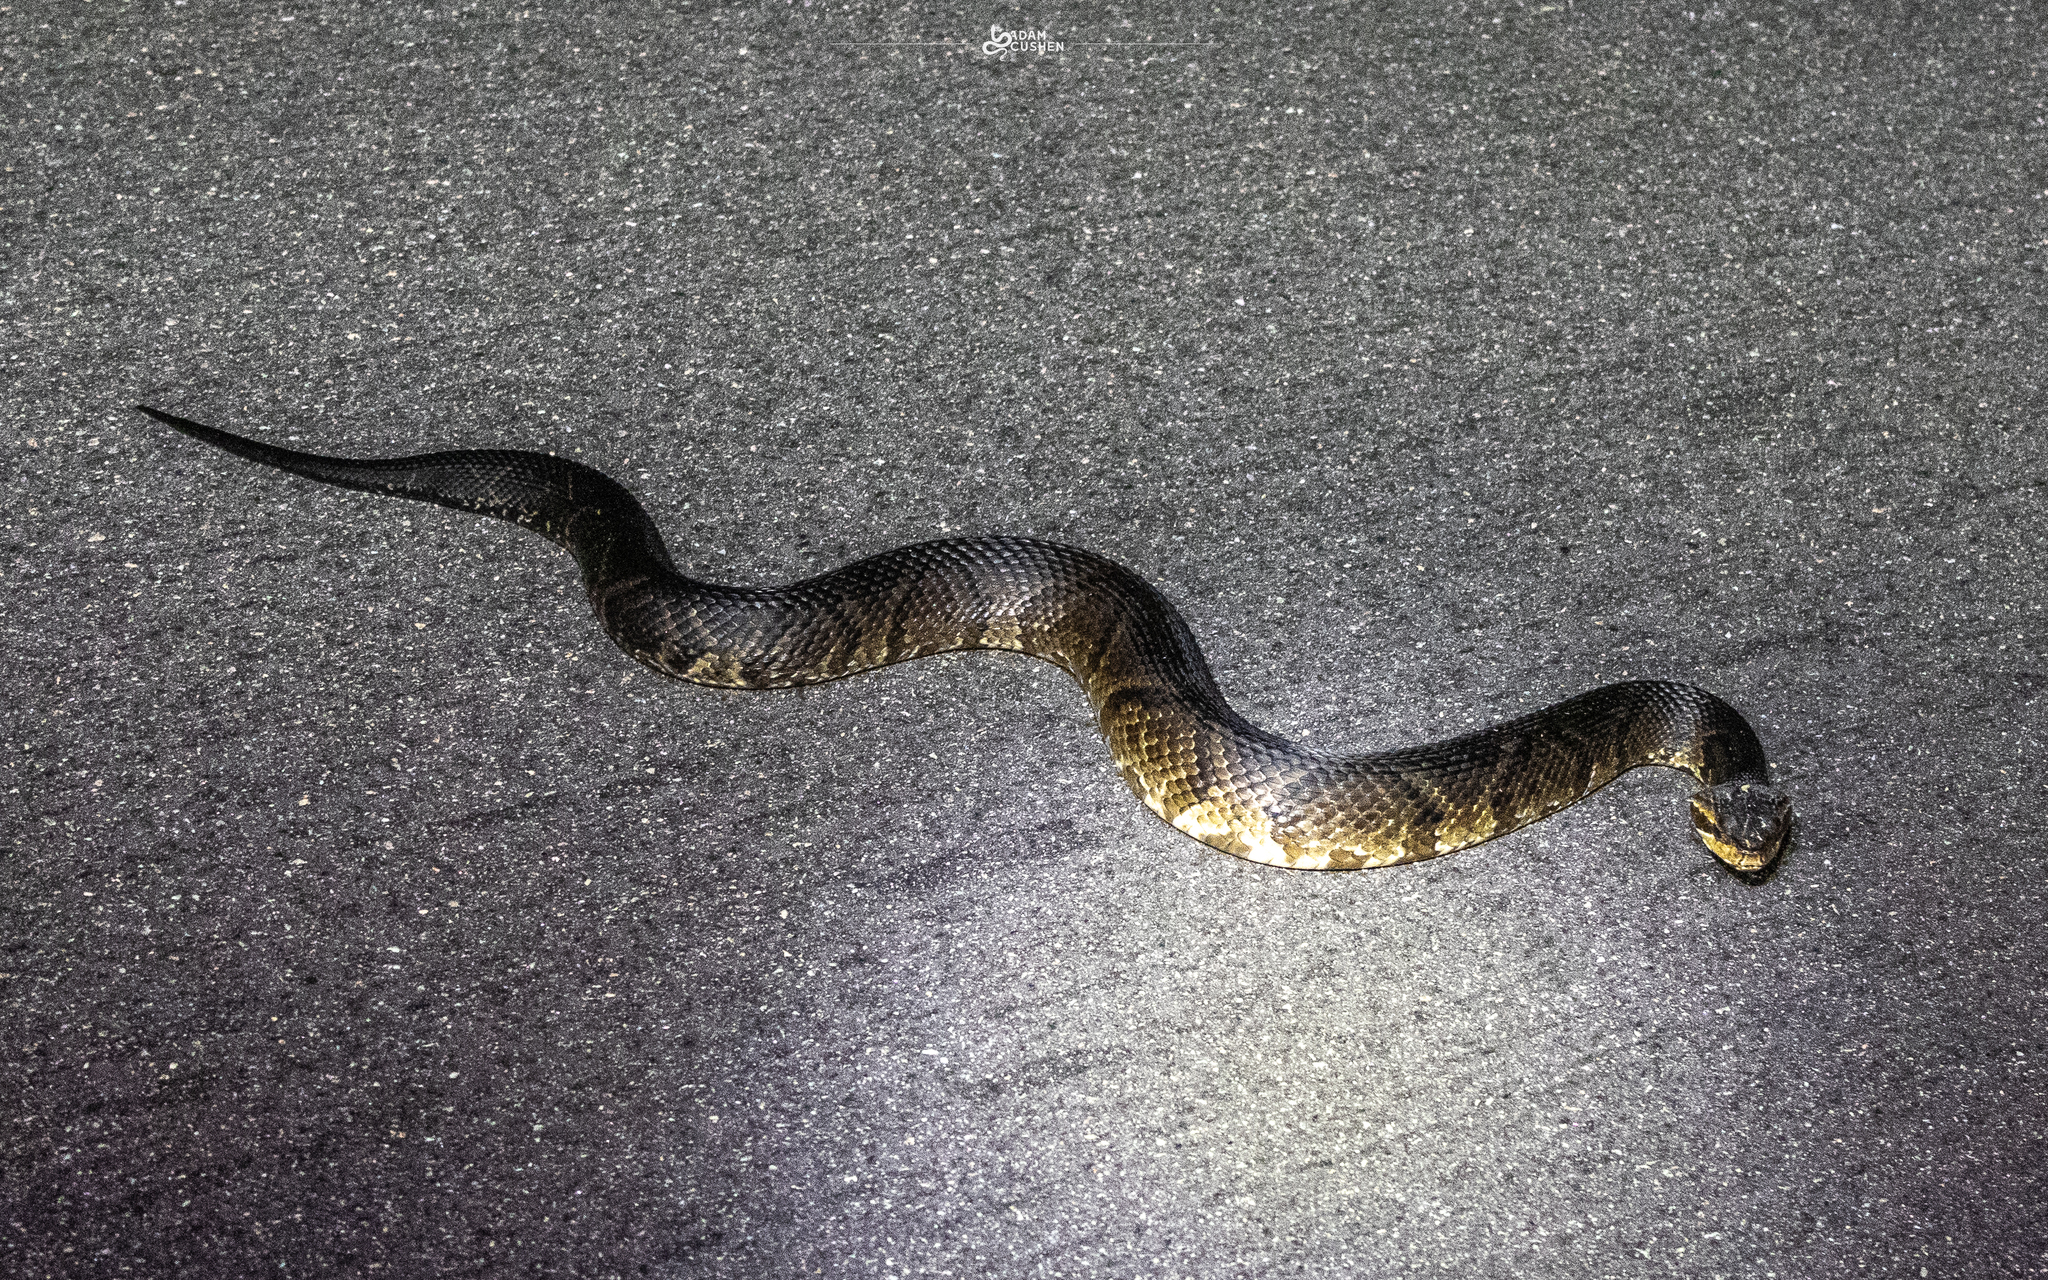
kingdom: Animalia
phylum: Chordata
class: Squamata
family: Viperidae
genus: Agkistrodon
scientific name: Agkistrodon conanti
